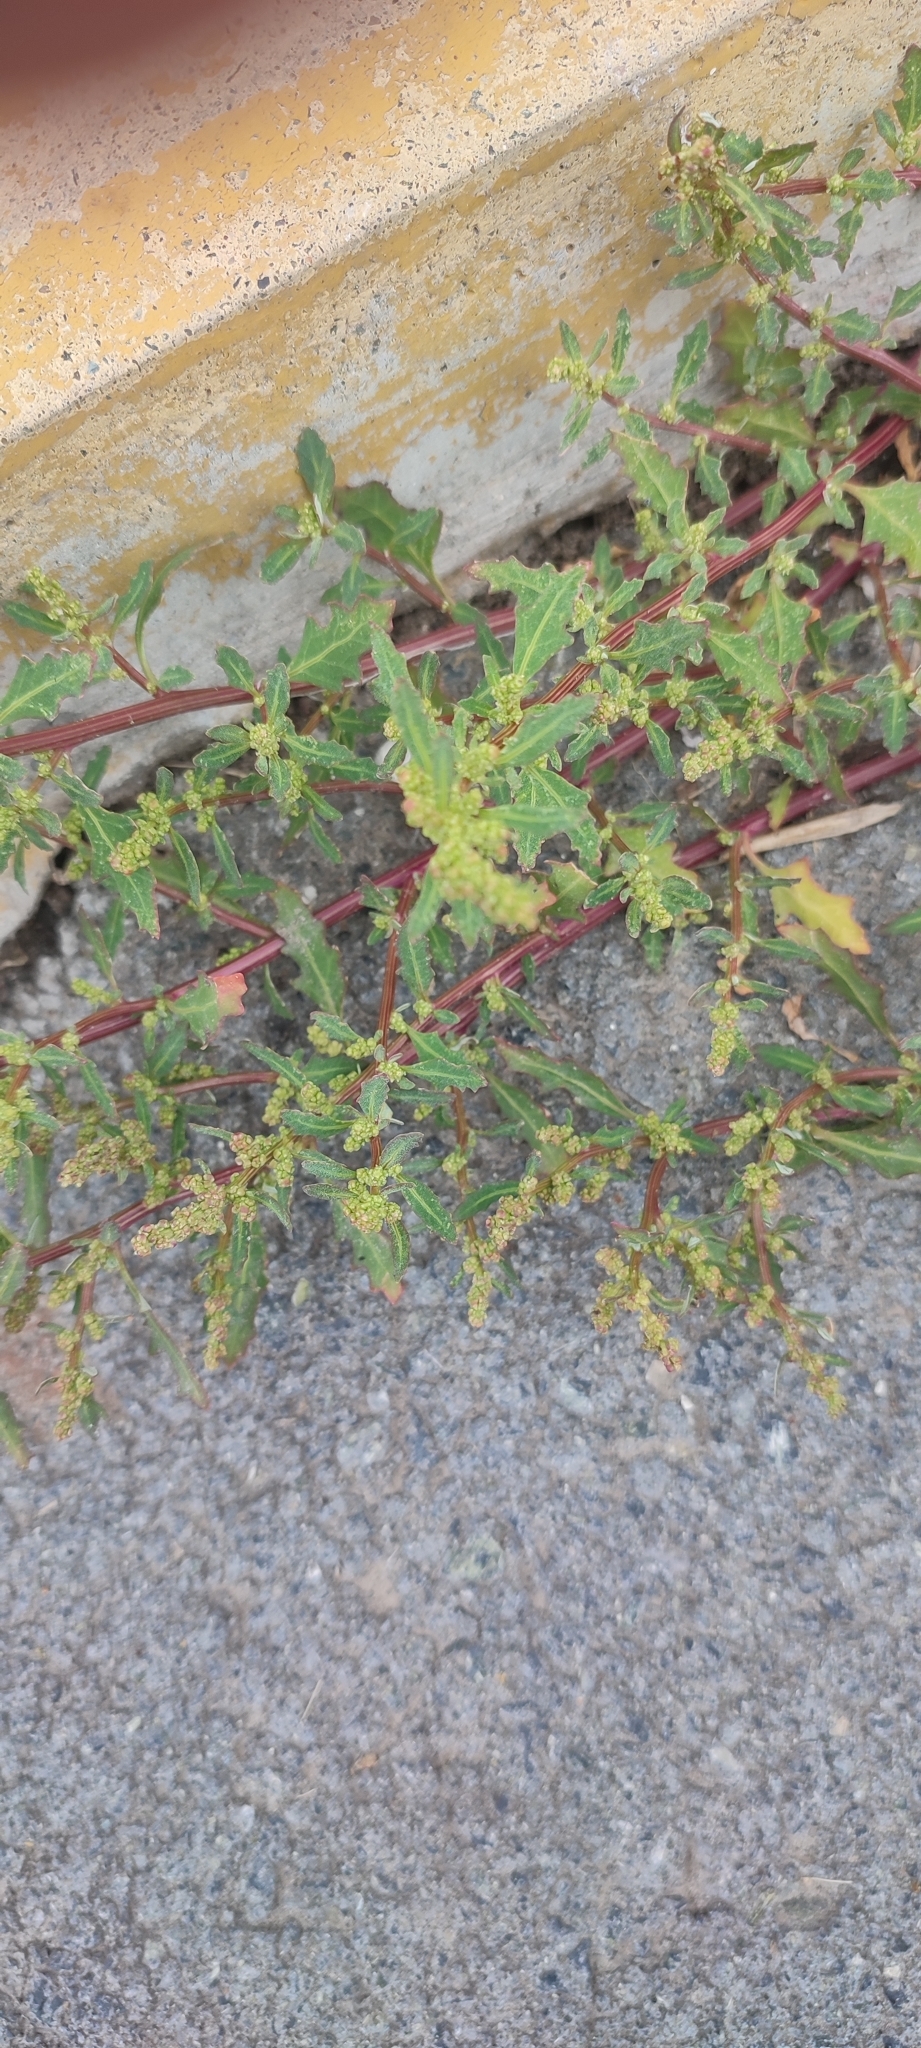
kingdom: Plantae
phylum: Tracheophyta
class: Magnoliopsida
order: Caryophyllales
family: Amaranthaceae
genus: Oxybasis
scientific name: Oxybasis glauca
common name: Glaucous goosefoot
